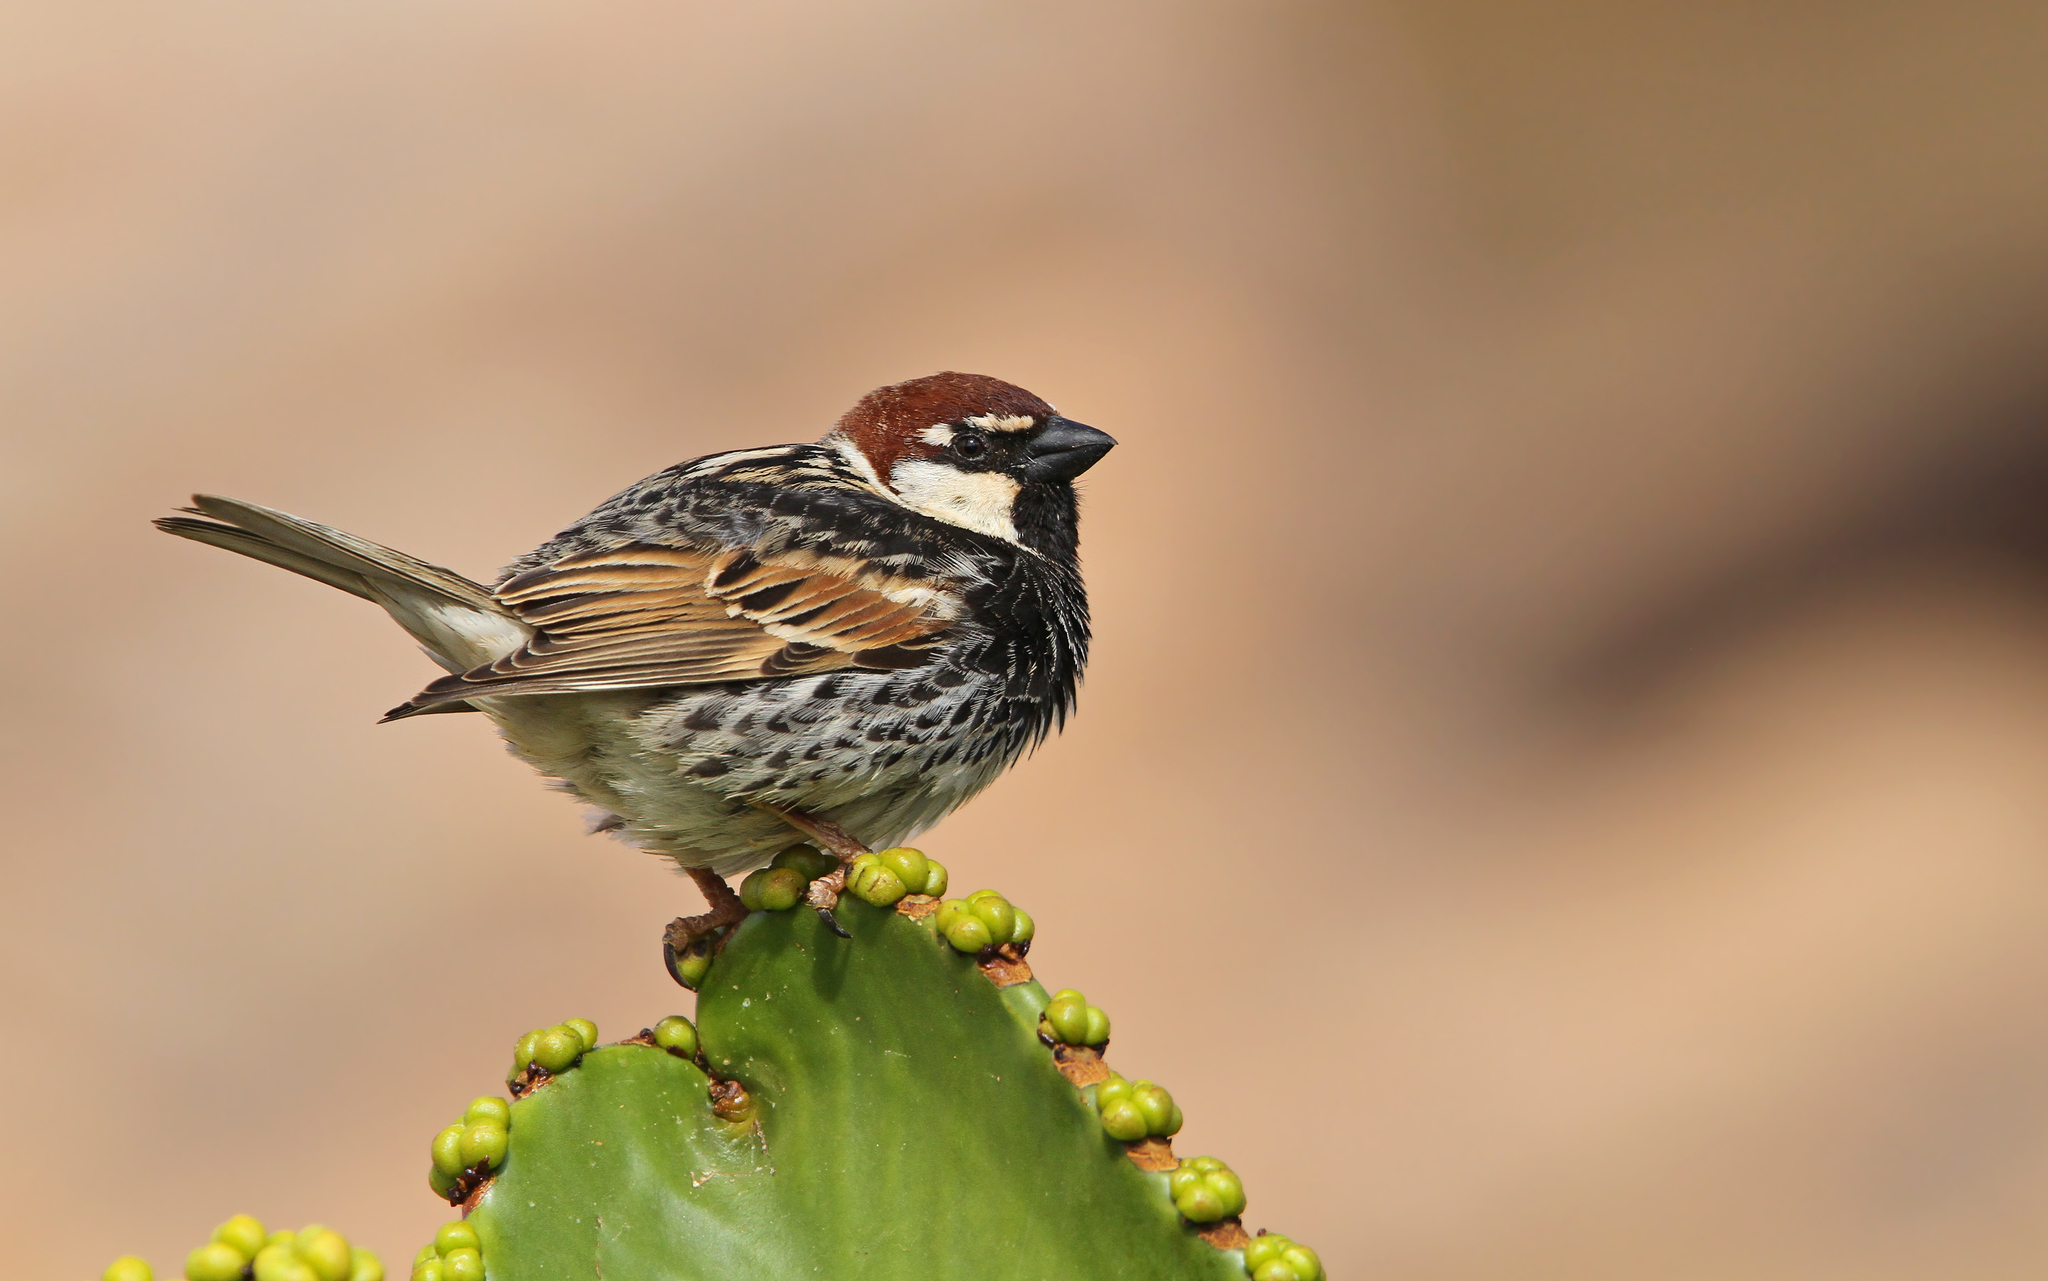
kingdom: Animalia
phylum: Chordata
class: Aves
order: Passeriformes
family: Passeridae
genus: Passer
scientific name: Passer hispaniolensis
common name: Spanish sparrow
